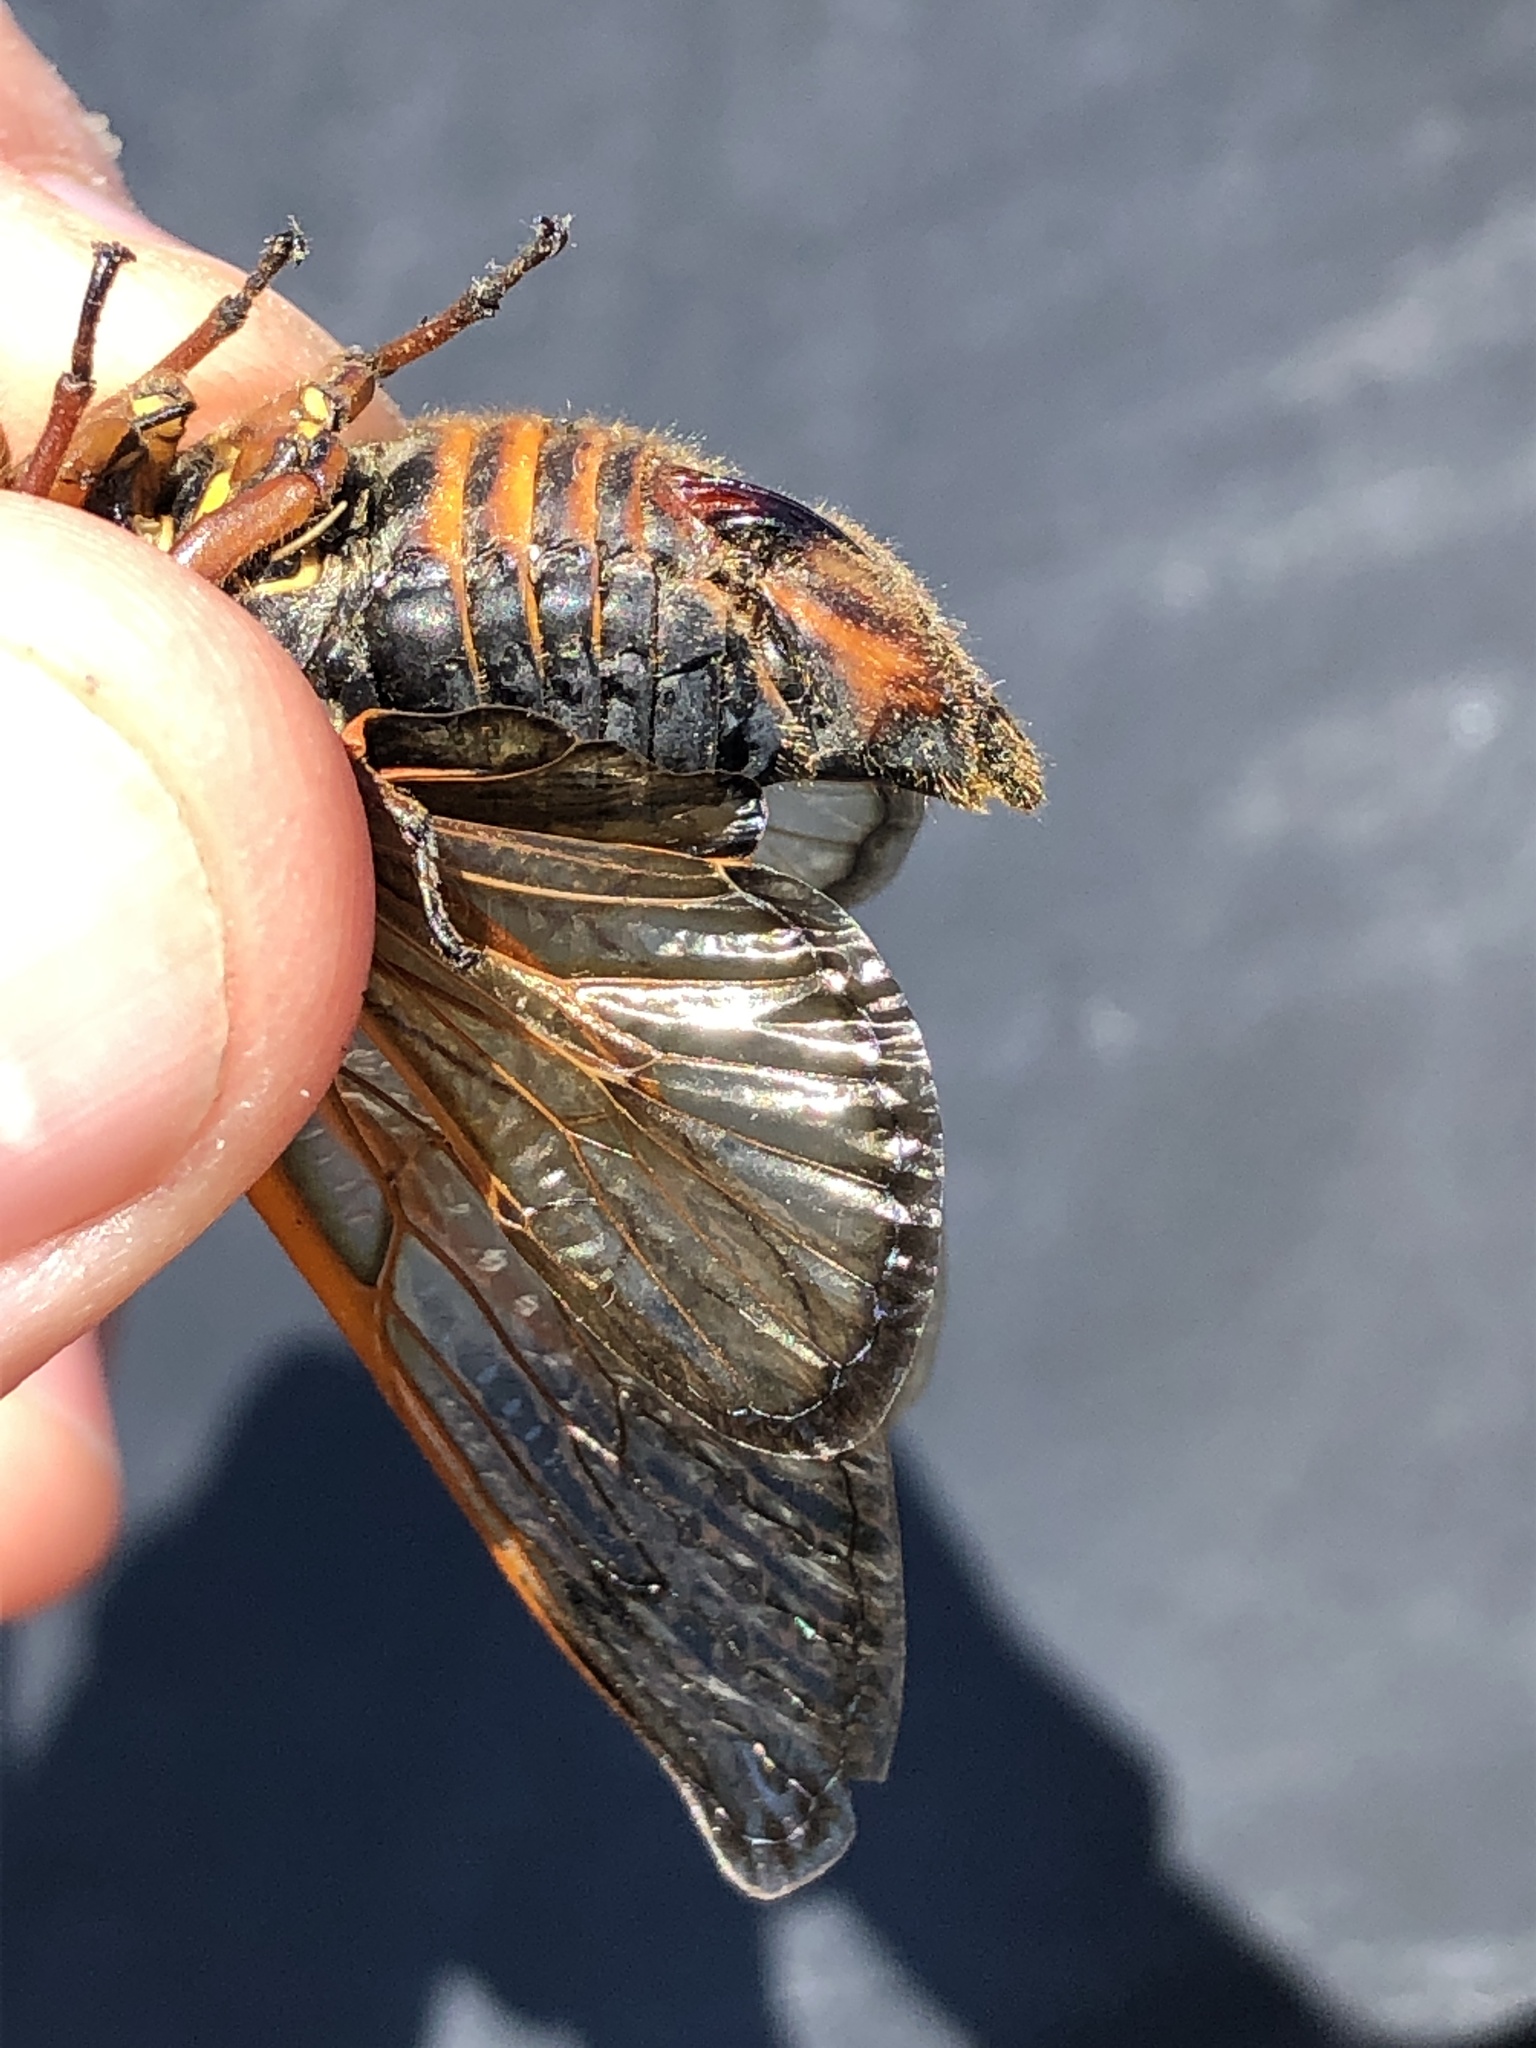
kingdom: Animalia
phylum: Arthropoda
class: Insecta
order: Hemiptera
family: Cicadidae
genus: Magicicada
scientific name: Magicicada septendecim
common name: Periodical cicada
